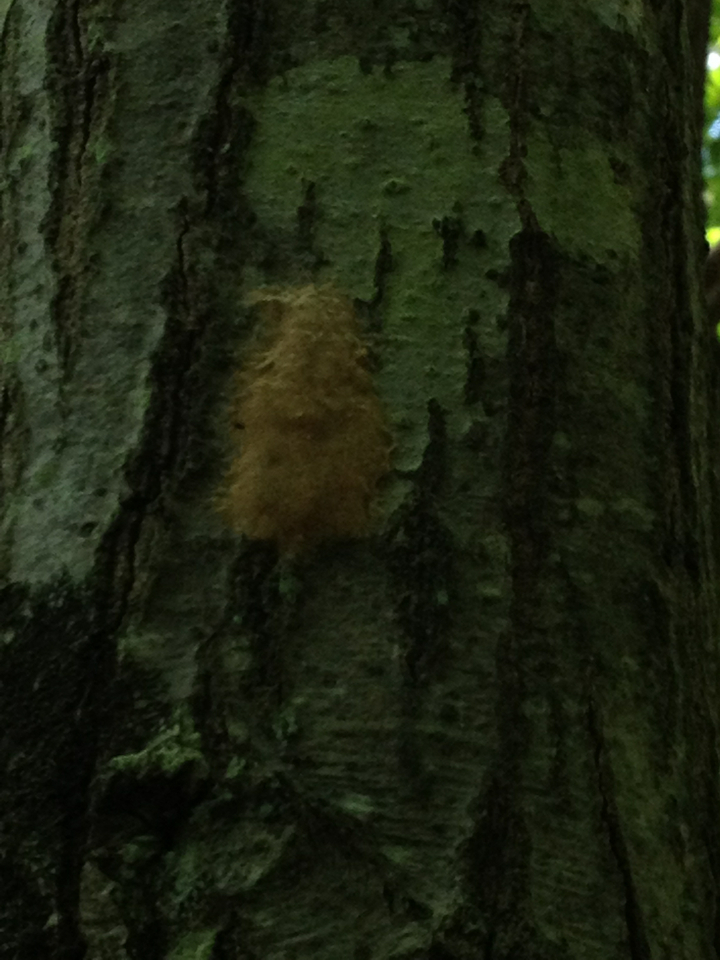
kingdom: Animalia
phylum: Arthropoda
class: Insecta
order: Lepidoptera
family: Erebidae
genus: Lymantria
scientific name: Lymantria dispar
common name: Gypsy moth
